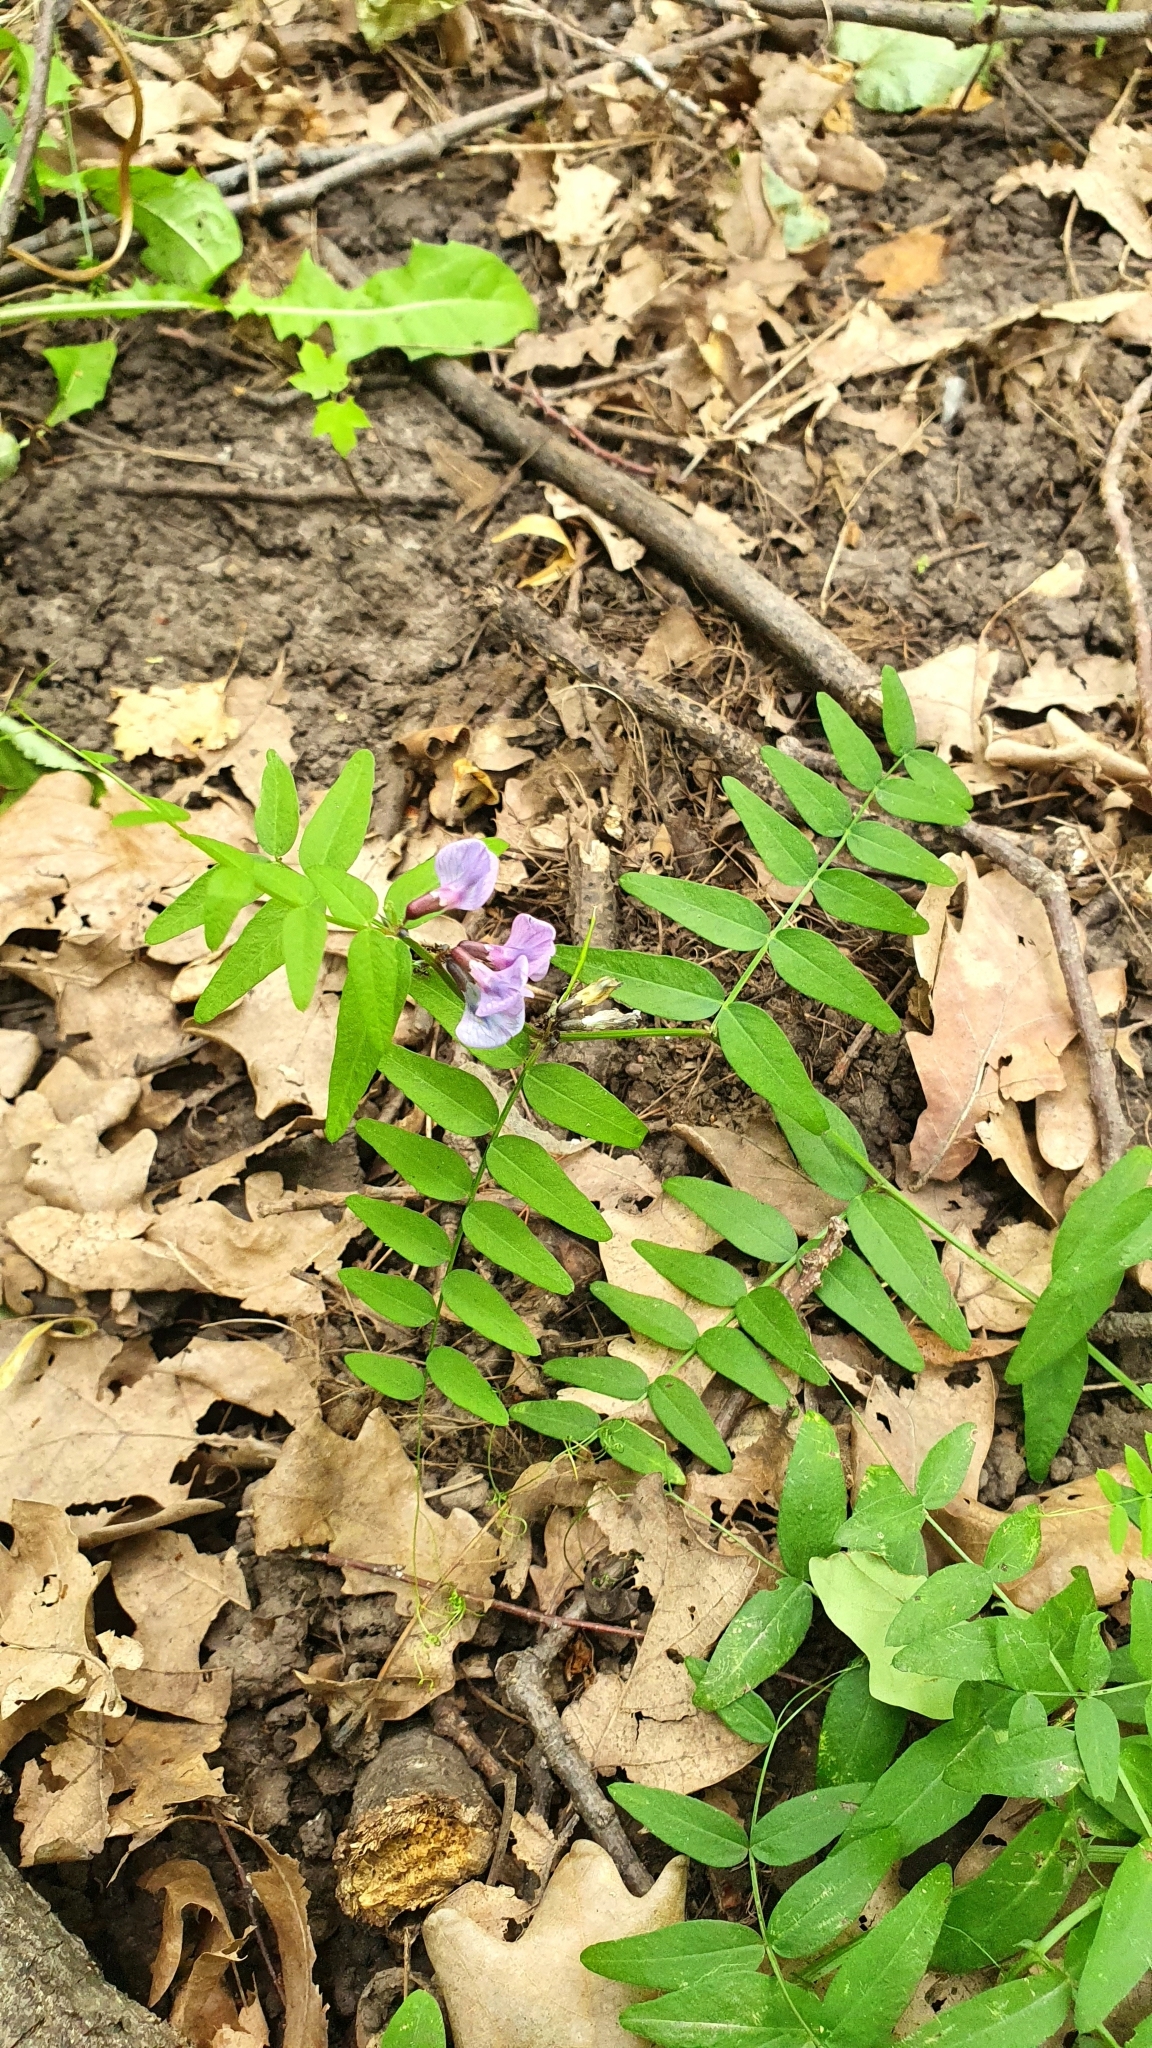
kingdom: Plantae
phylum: Tracheophyta
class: Magnoliopsida
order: Fabales
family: Fabaceae
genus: Vicia
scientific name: Vicia sepium
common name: Bush vetch
